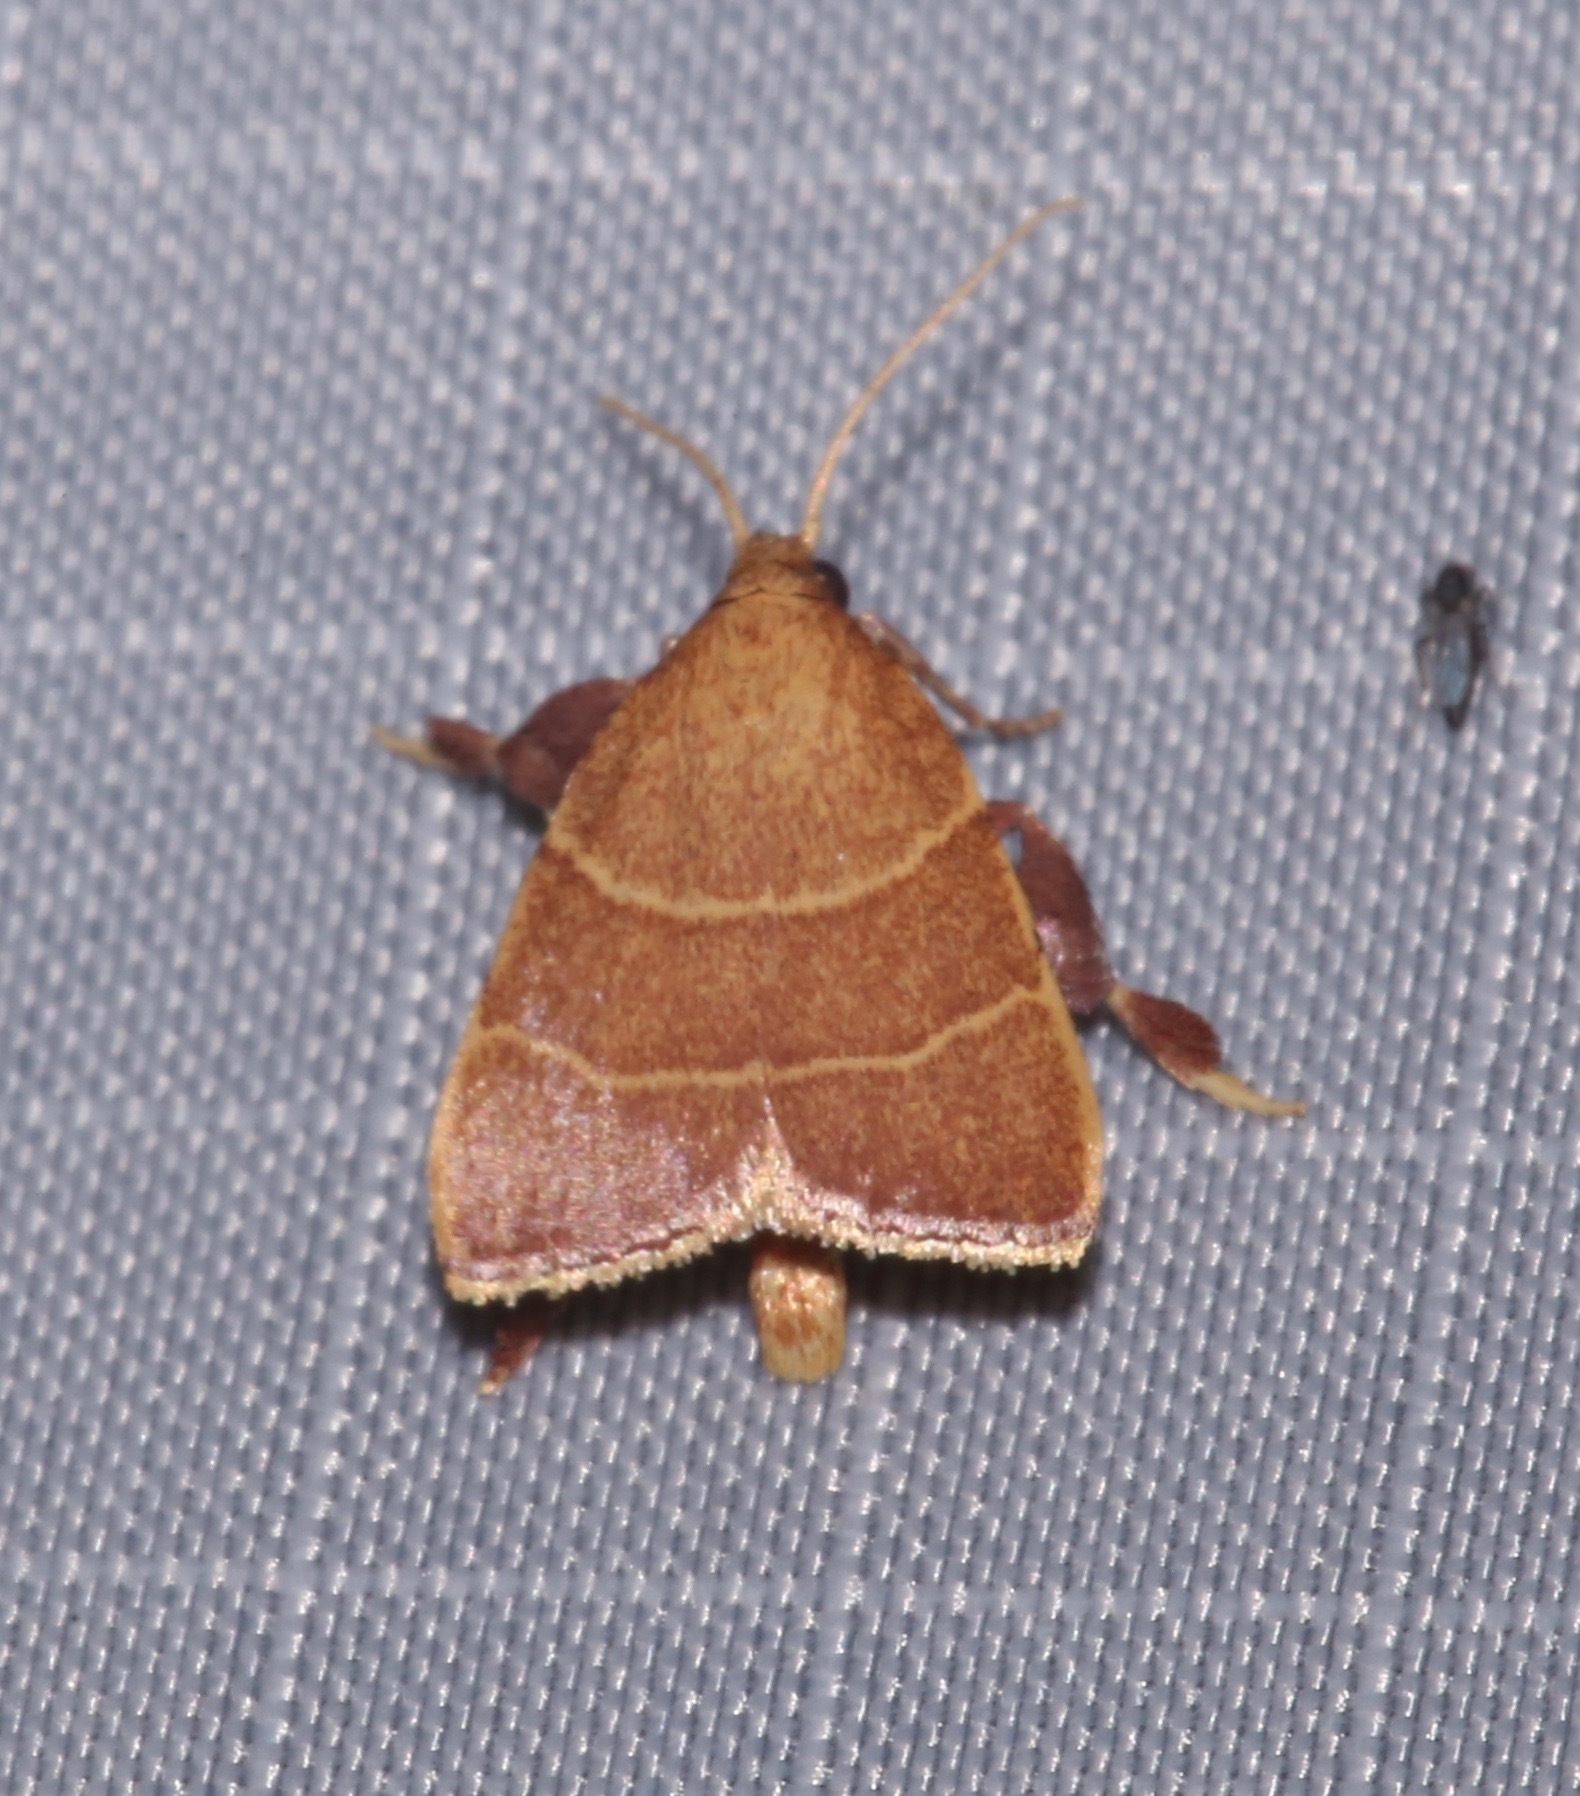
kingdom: Animalia
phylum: Arthropoda
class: Insecta
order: Lepidoptera
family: Pyralidae
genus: Parachma
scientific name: Parachma ochracealis
